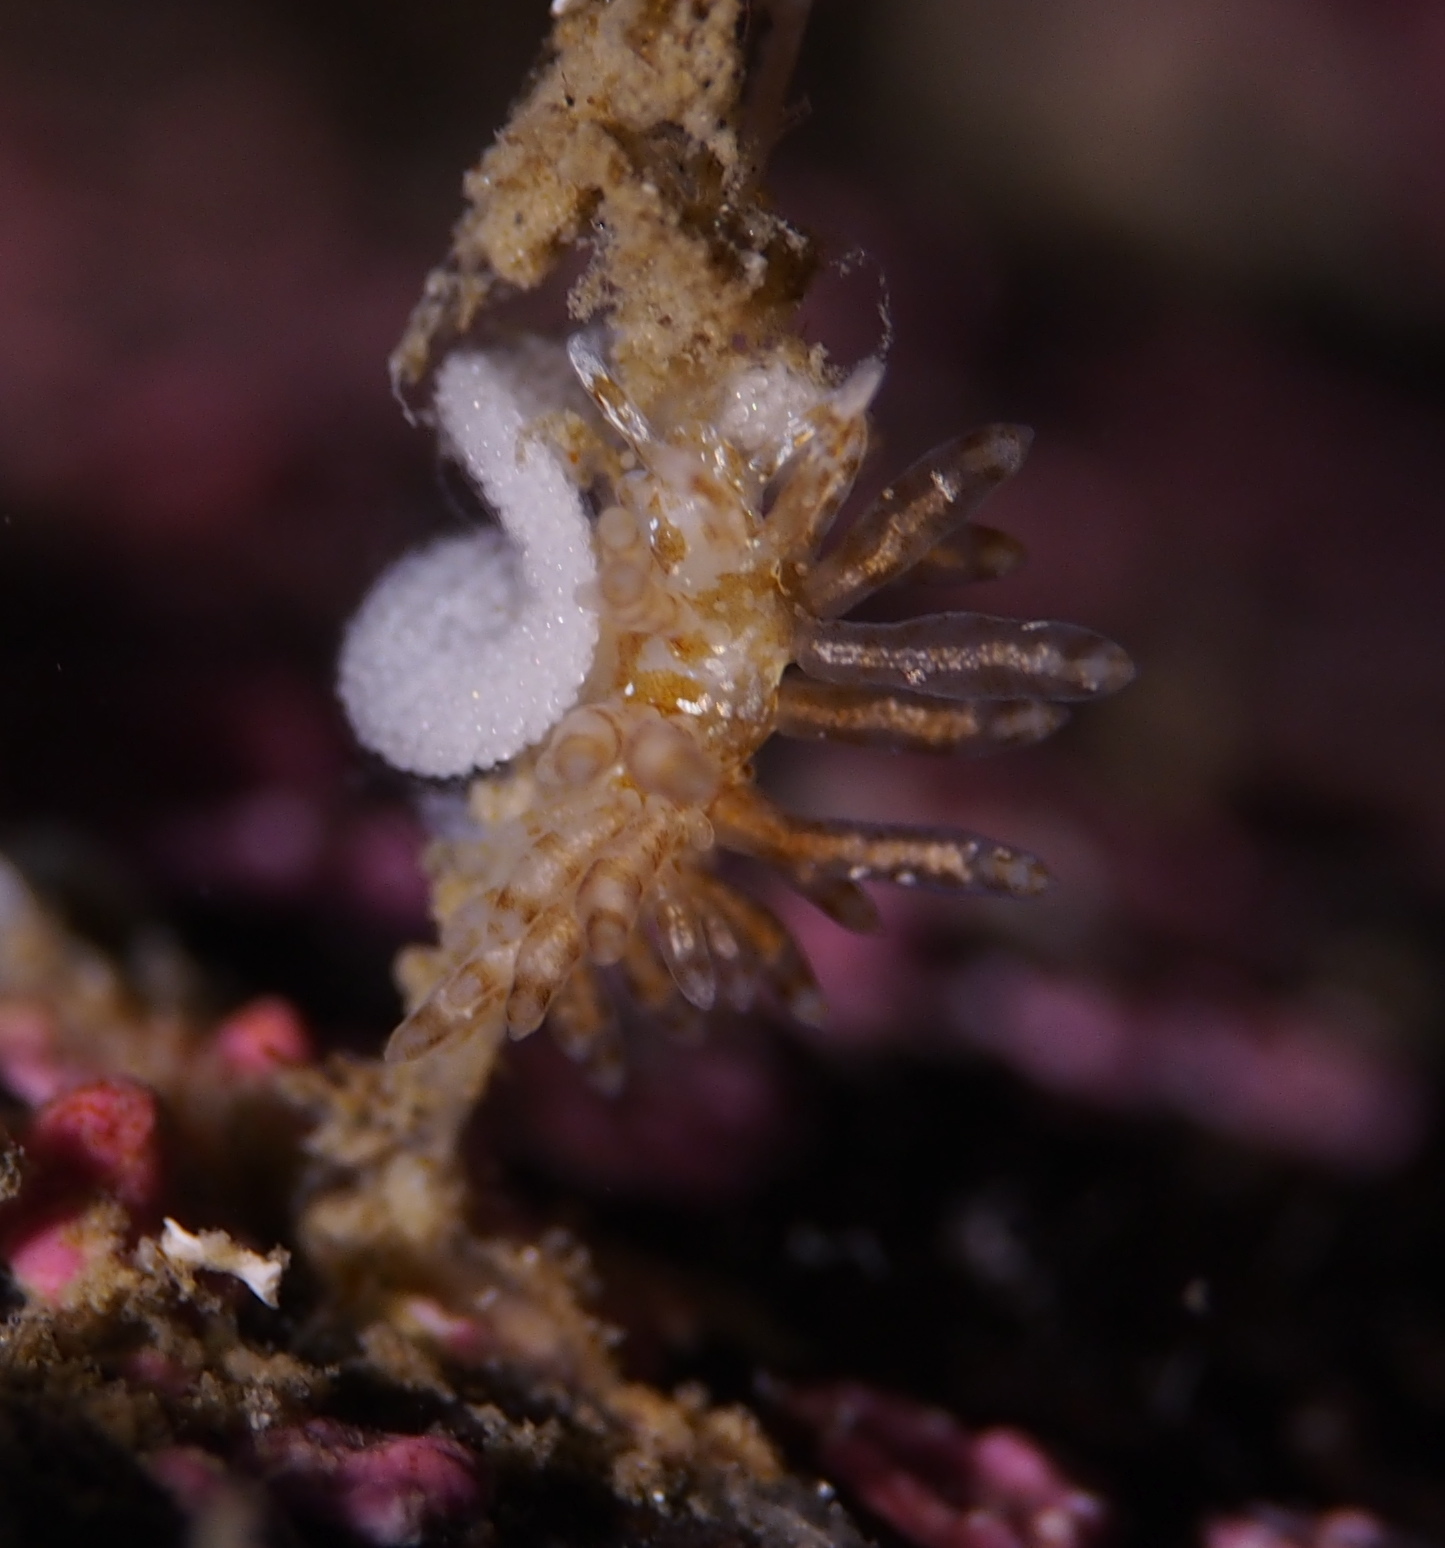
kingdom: Animalia
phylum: Mollusca
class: Gastropoda
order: Nudibranchia
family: Eubranchidae
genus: Eubranchus
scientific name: Eubranchus vittatus
